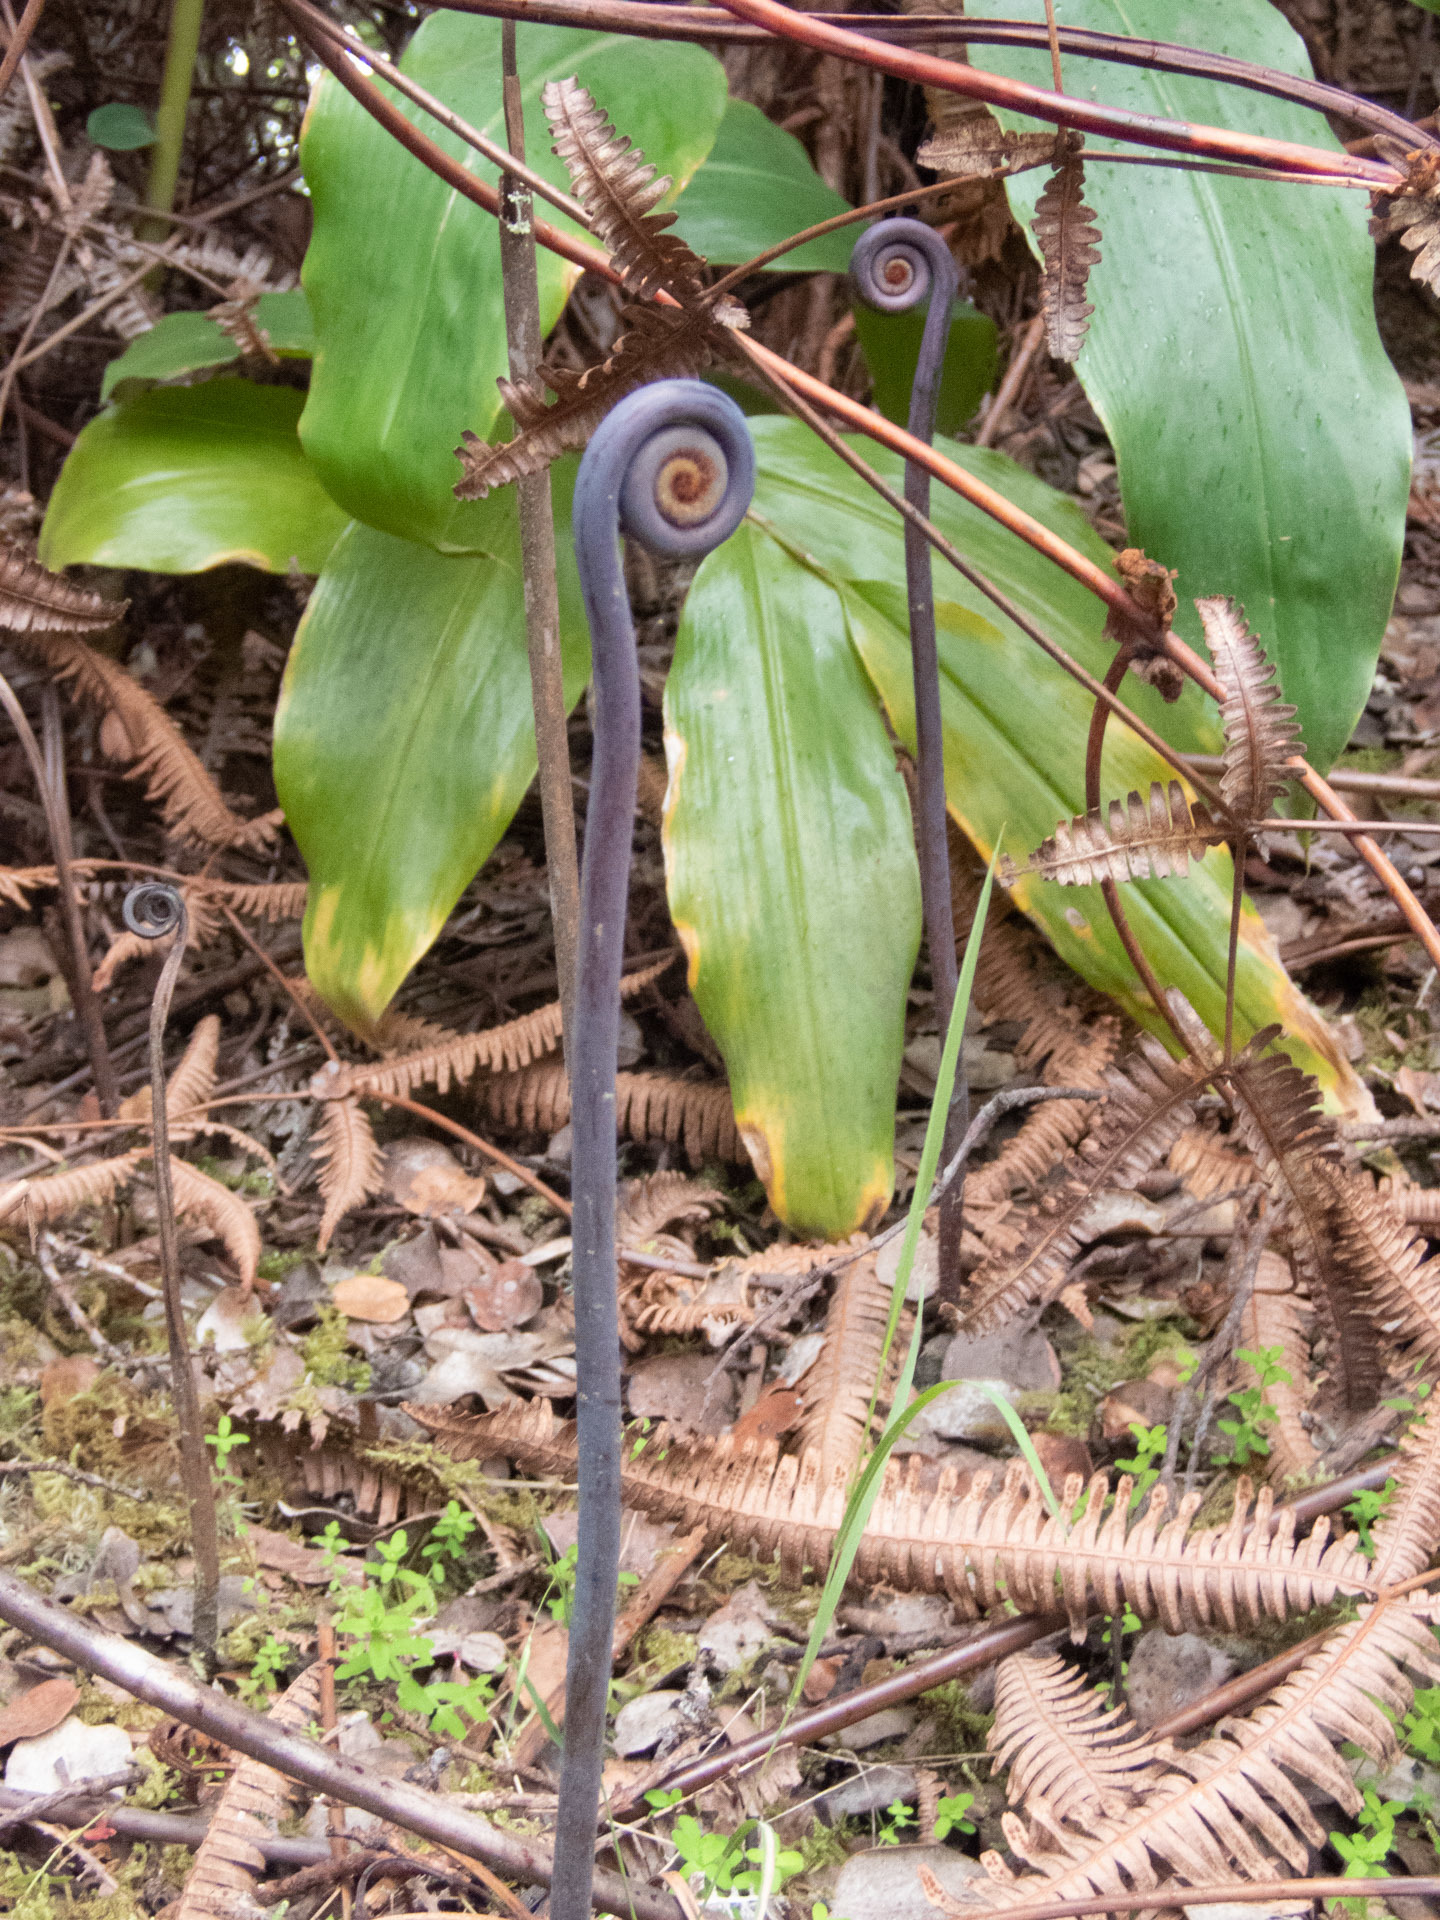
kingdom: Plantae
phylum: Tracheophyta
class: Polypodiopsida
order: Gleicheniales
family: Gleicheniaceae
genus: Dicranopteris
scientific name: Dicranopteris linearis
